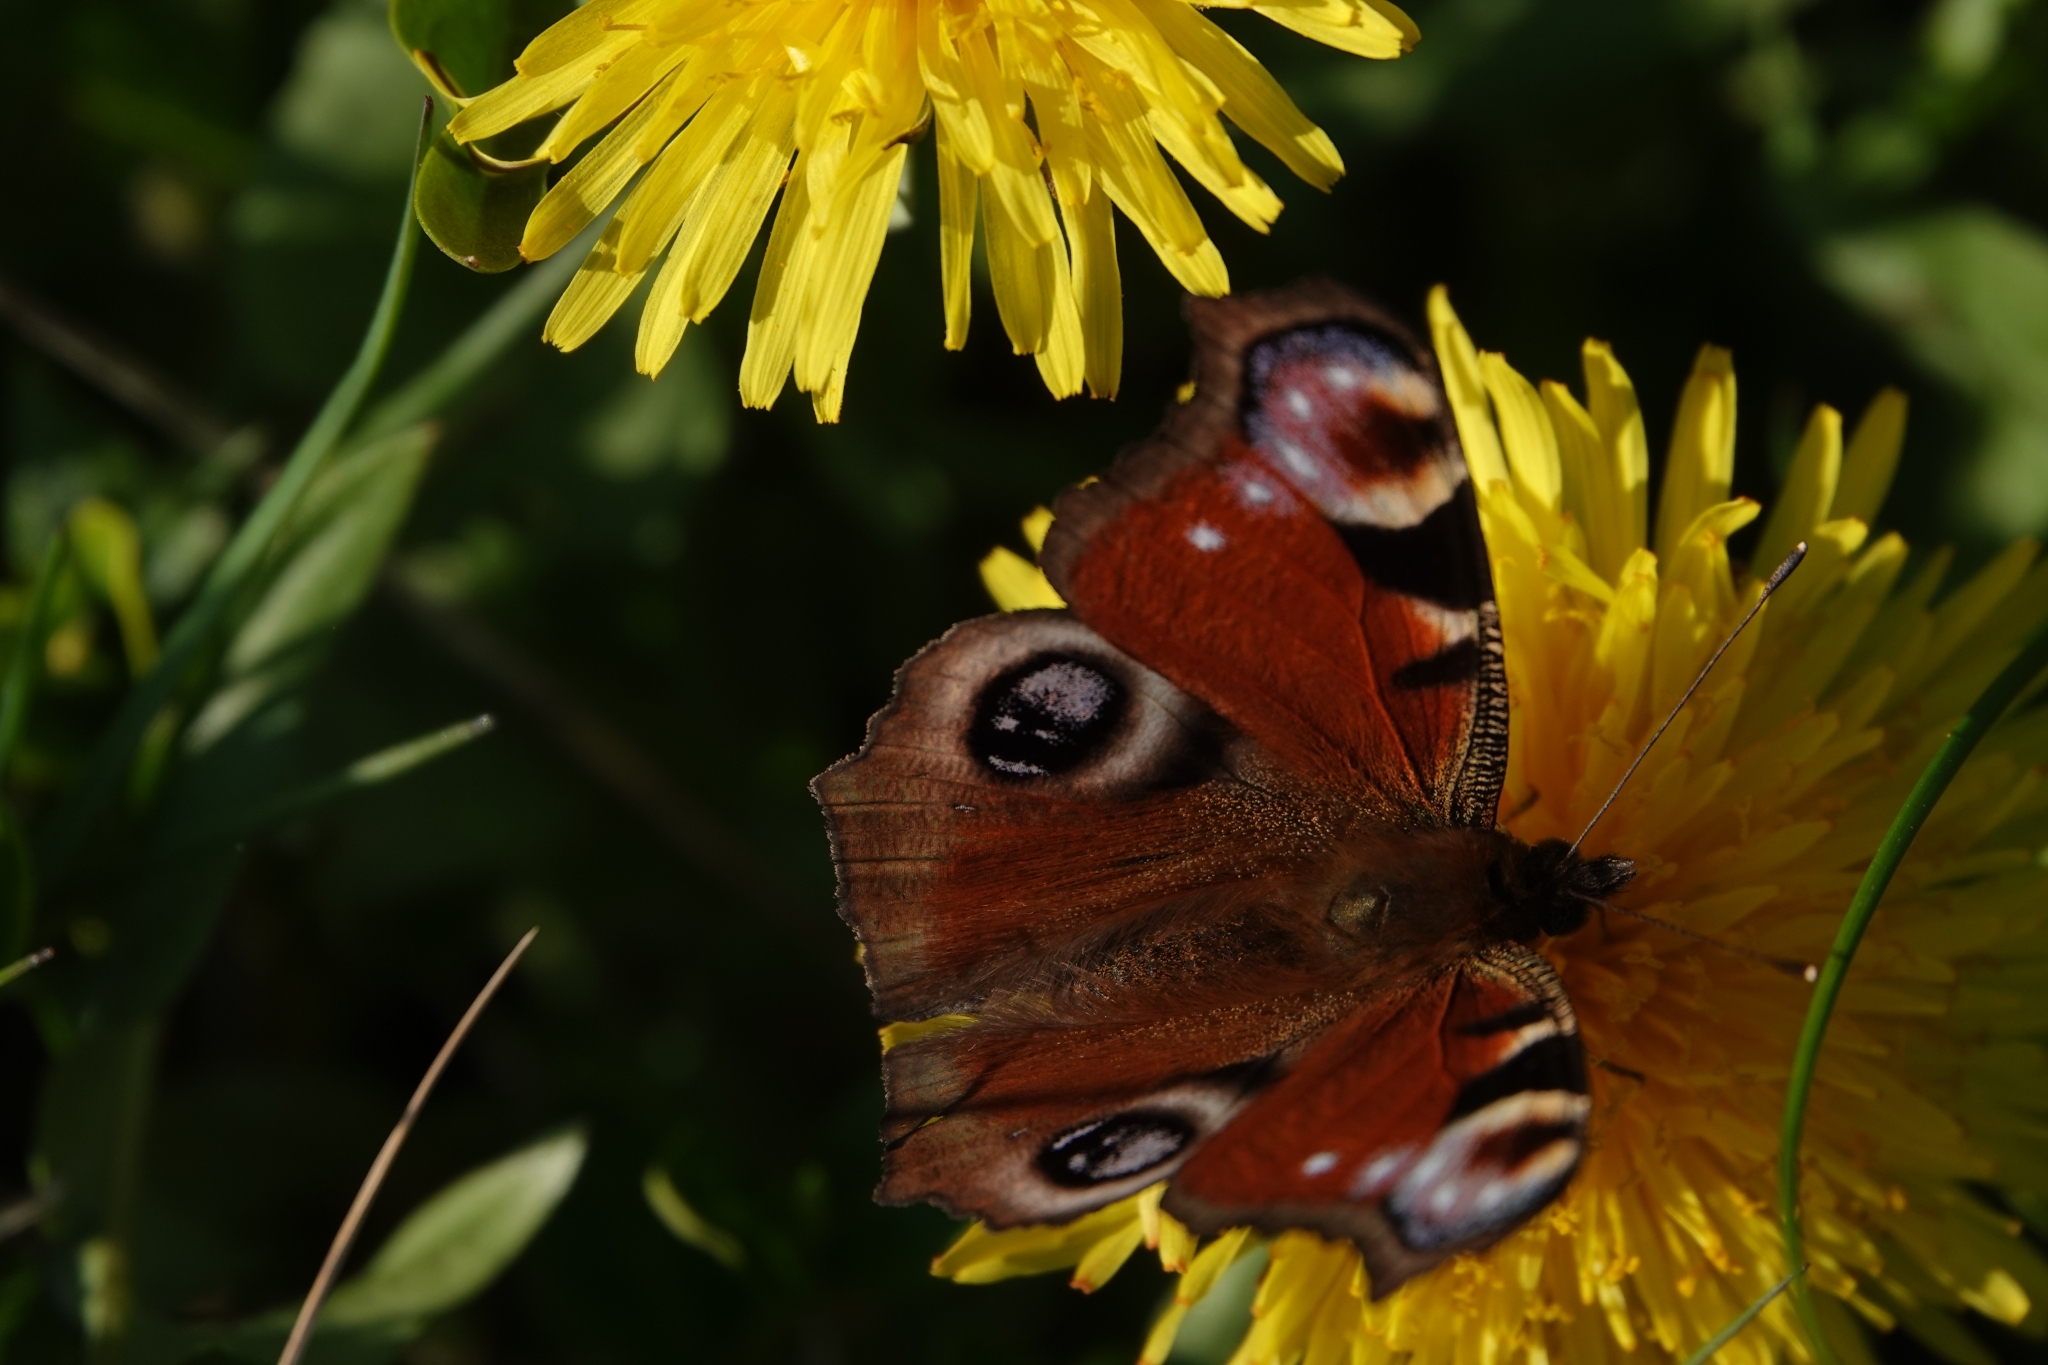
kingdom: Animalia
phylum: Arthropoda
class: Insecta
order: Lepidoptera
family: Nymphalidae
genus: Aglais
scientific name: Aglais io
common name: Peacock
